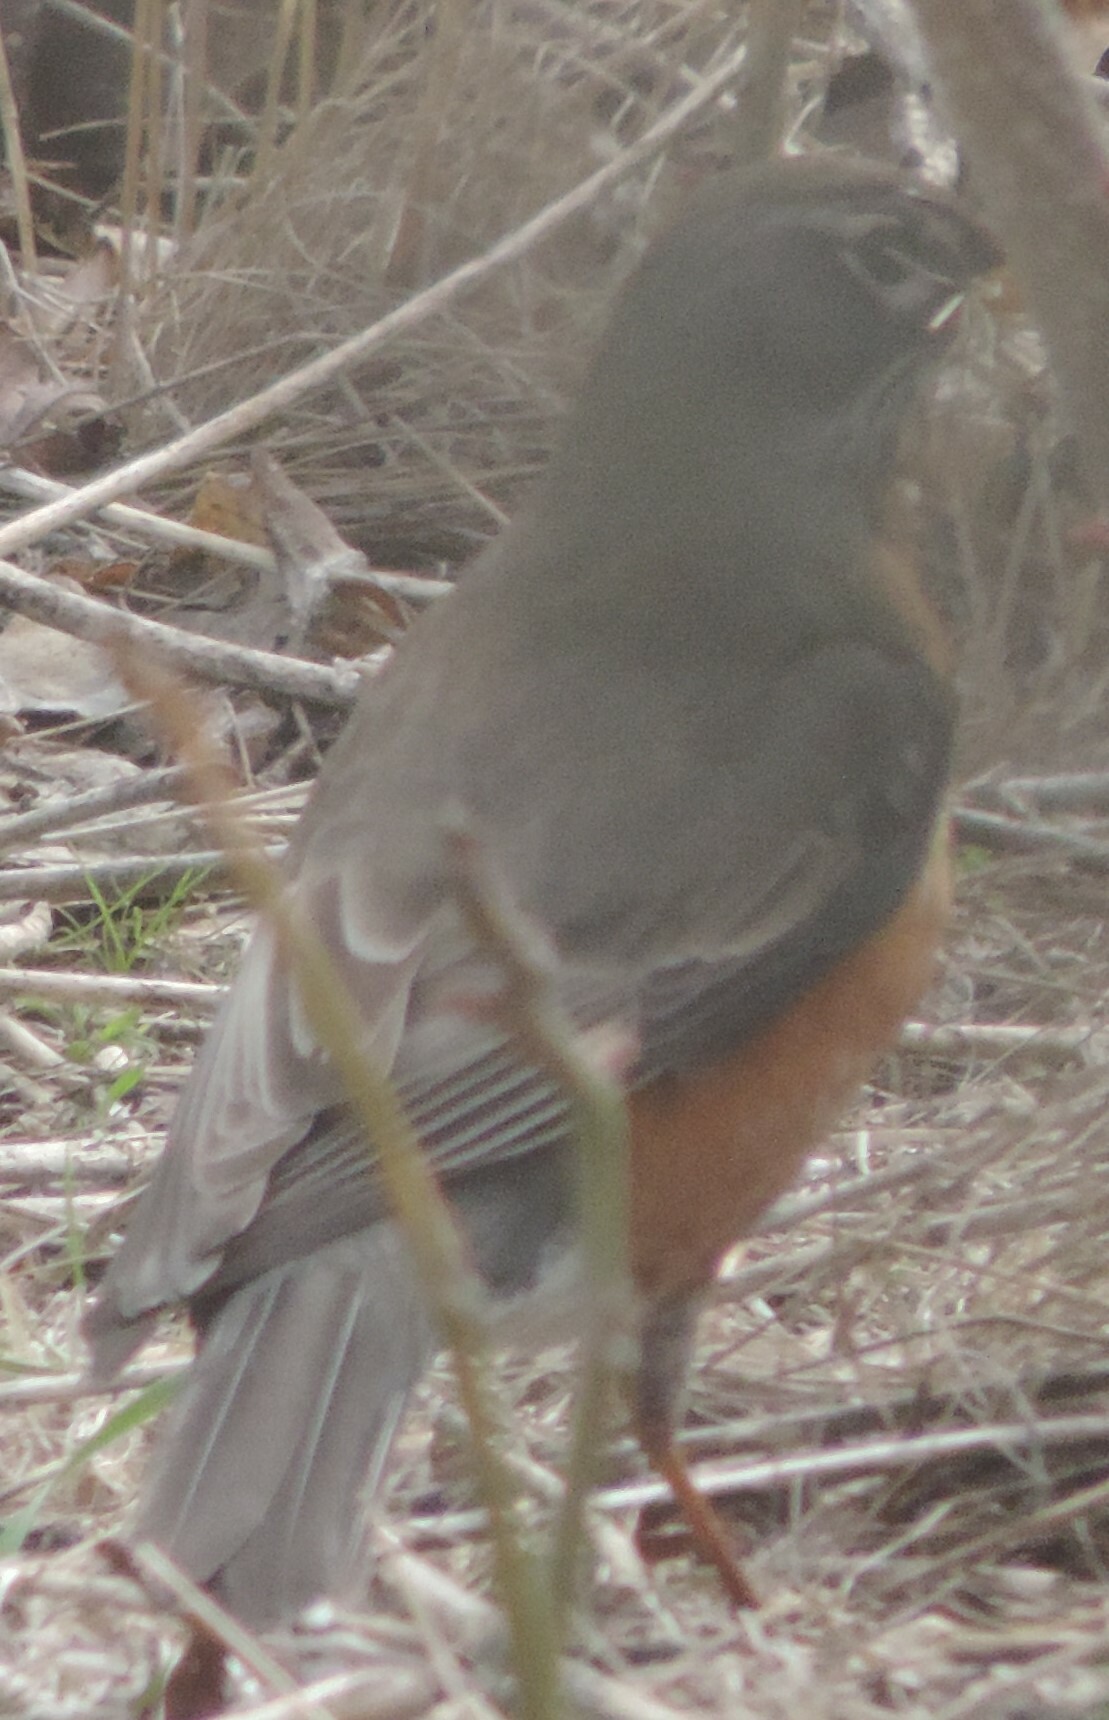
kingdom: Animalia
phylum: Chordata
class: Aves
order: Passeriformes
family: Turdidae
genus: Turdus
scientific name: Turdus migratorius
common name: American robin
